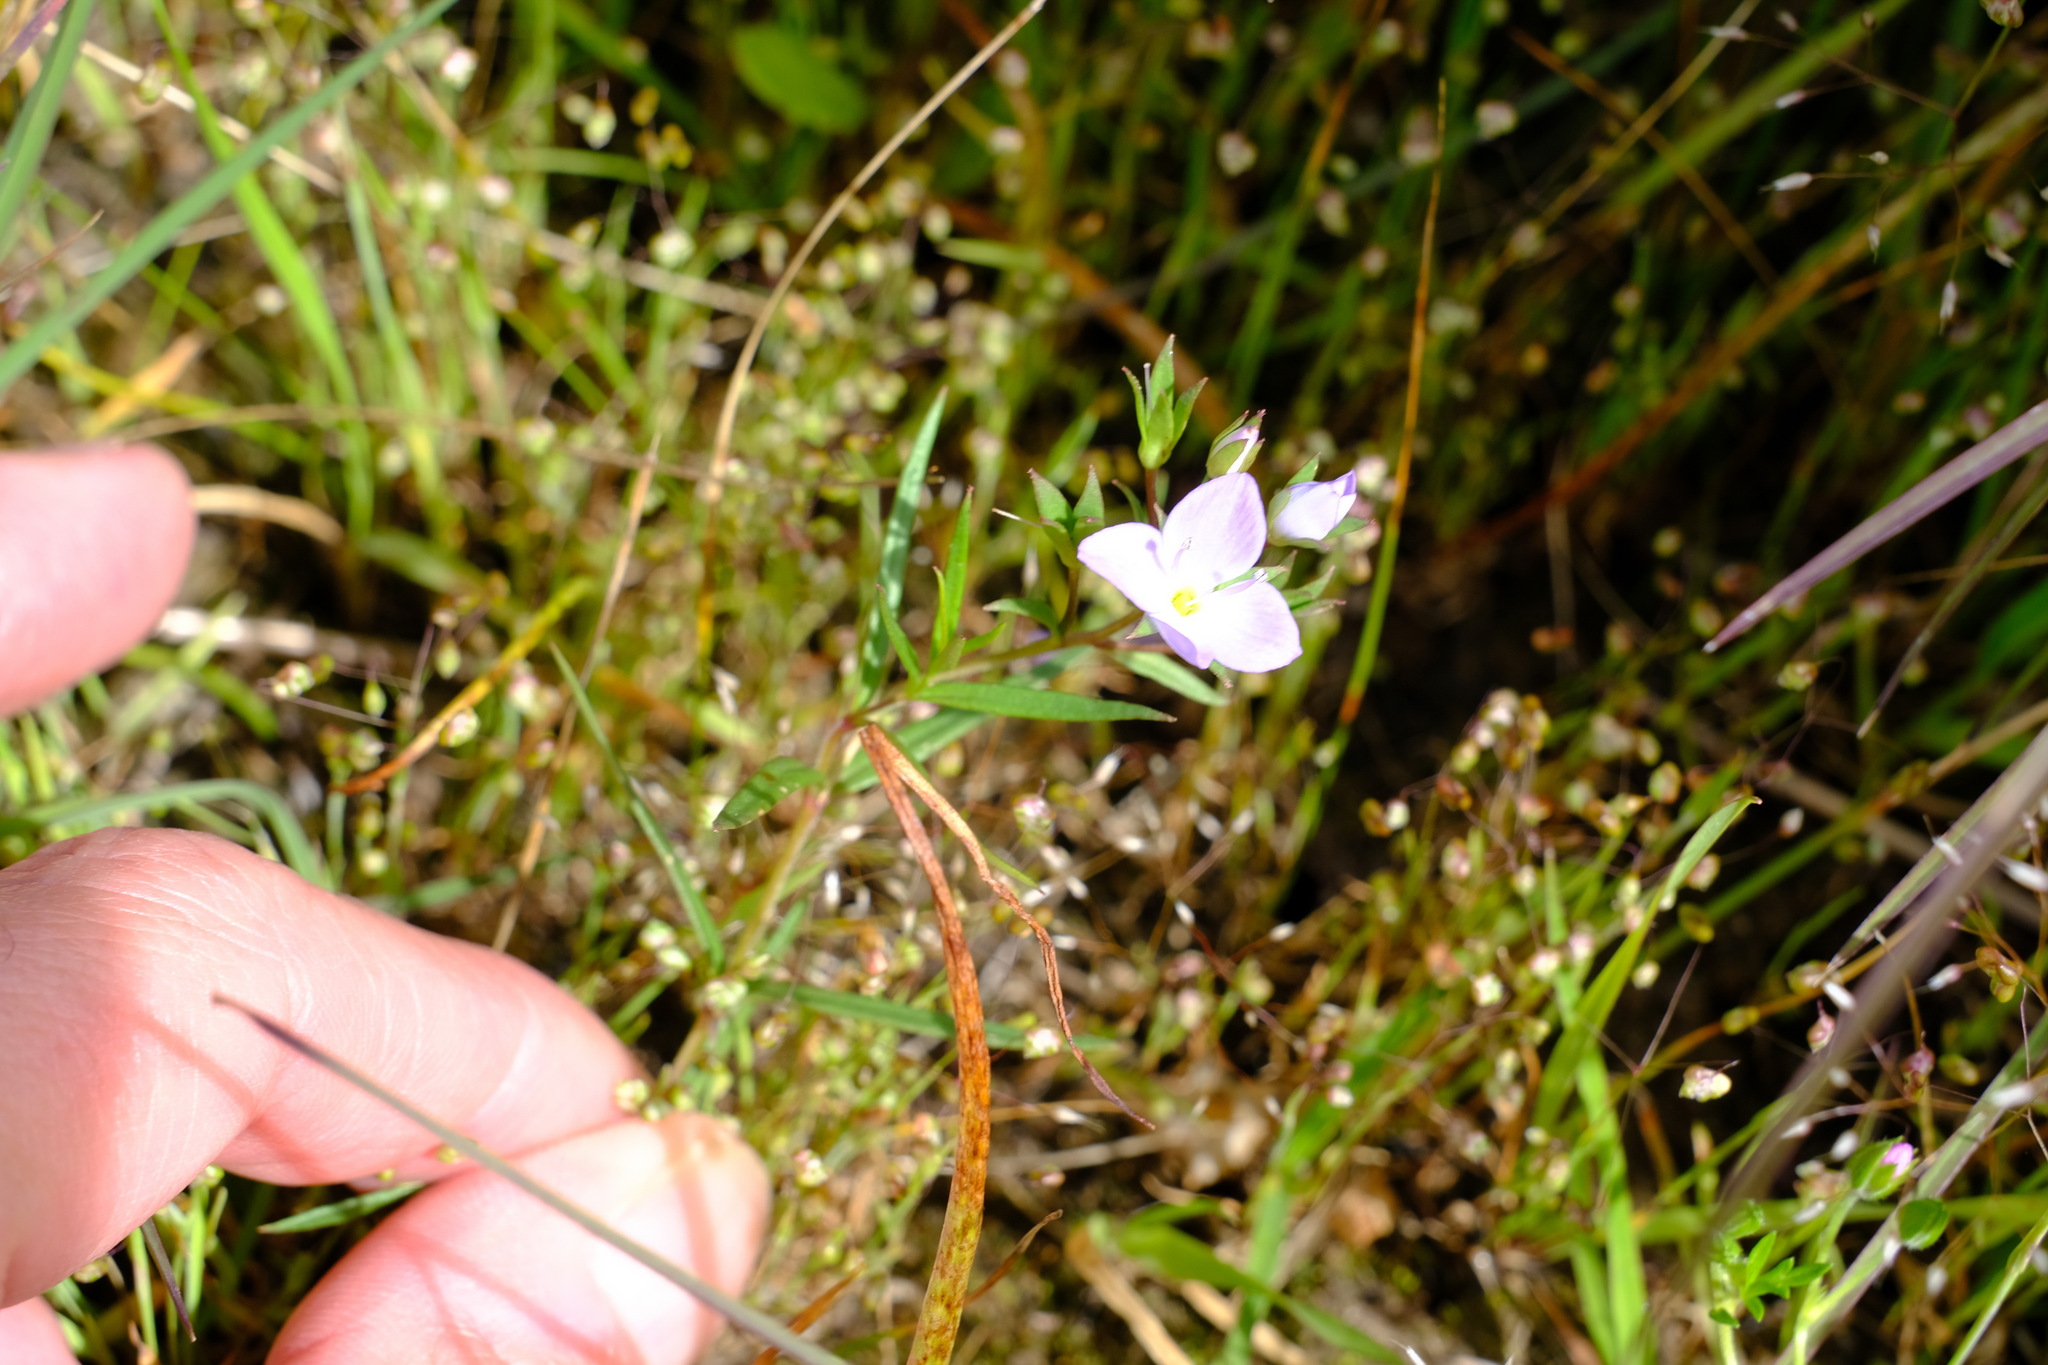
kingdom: Plantae
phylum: Tracheophyta
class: Magnoliopsida
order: Lamiales
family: Plantaginaceae
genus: Veronica
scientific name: Veronica gracilis
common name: Slender speedwell
